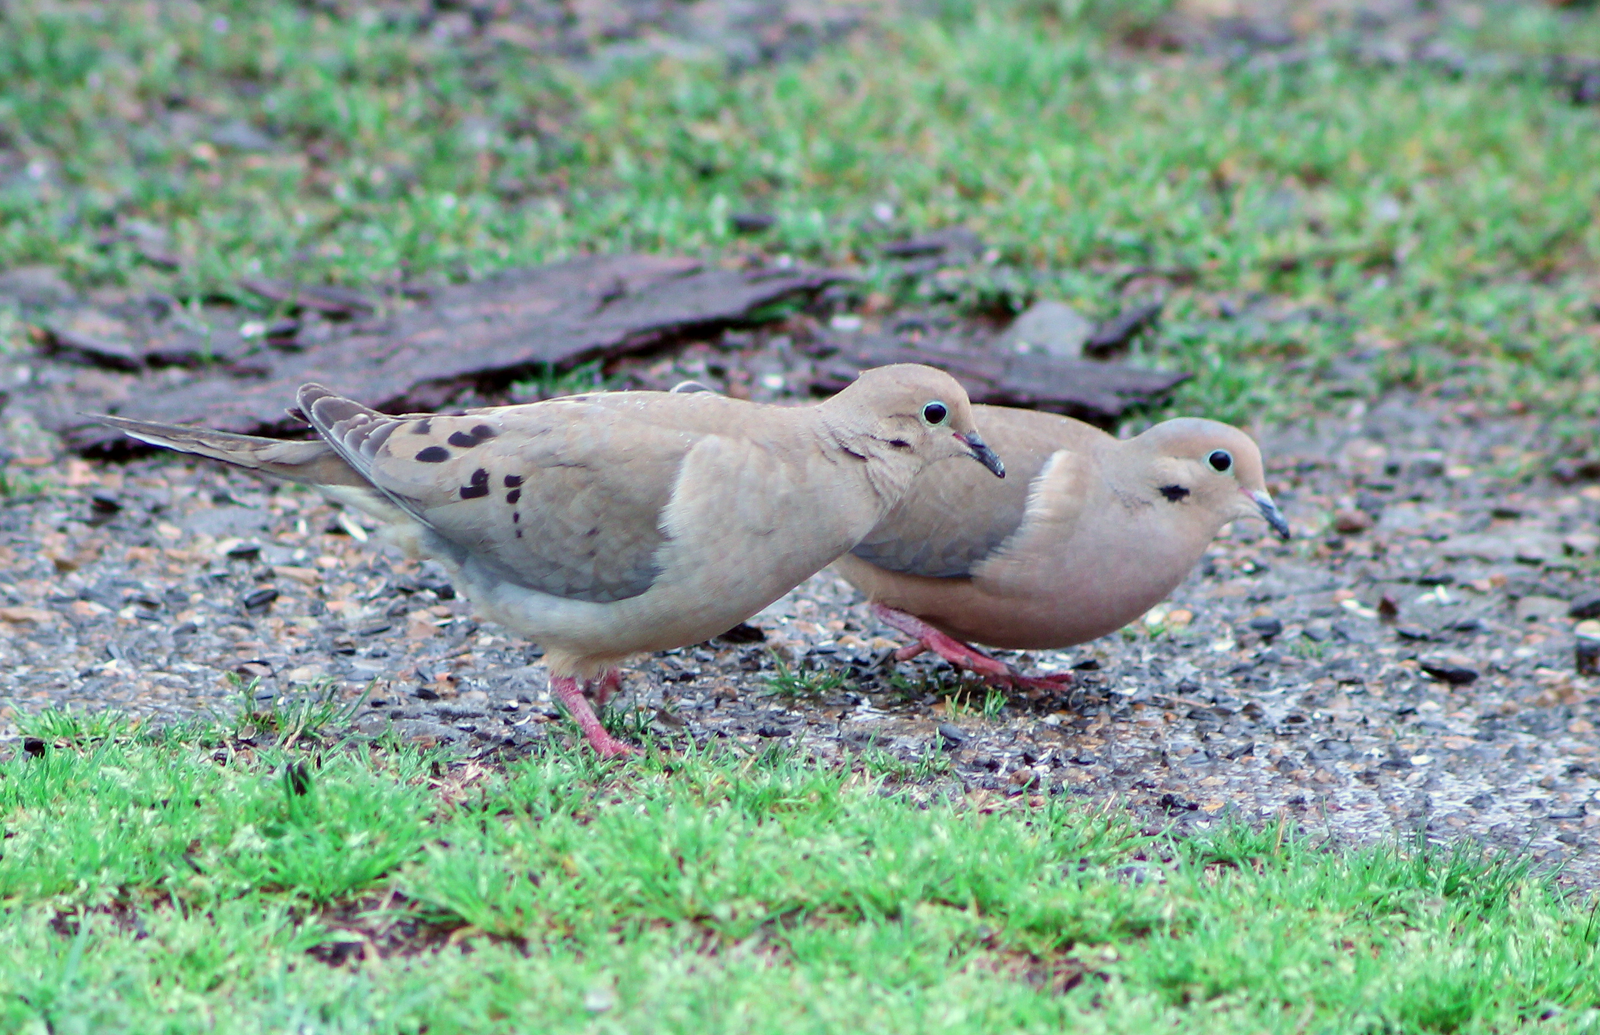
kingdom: Animalia
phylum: Chordata
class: Aves
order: Columbiformes
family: Columbidae
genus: Zenaida
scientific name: Zenaida macroura
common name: Mourning dove
